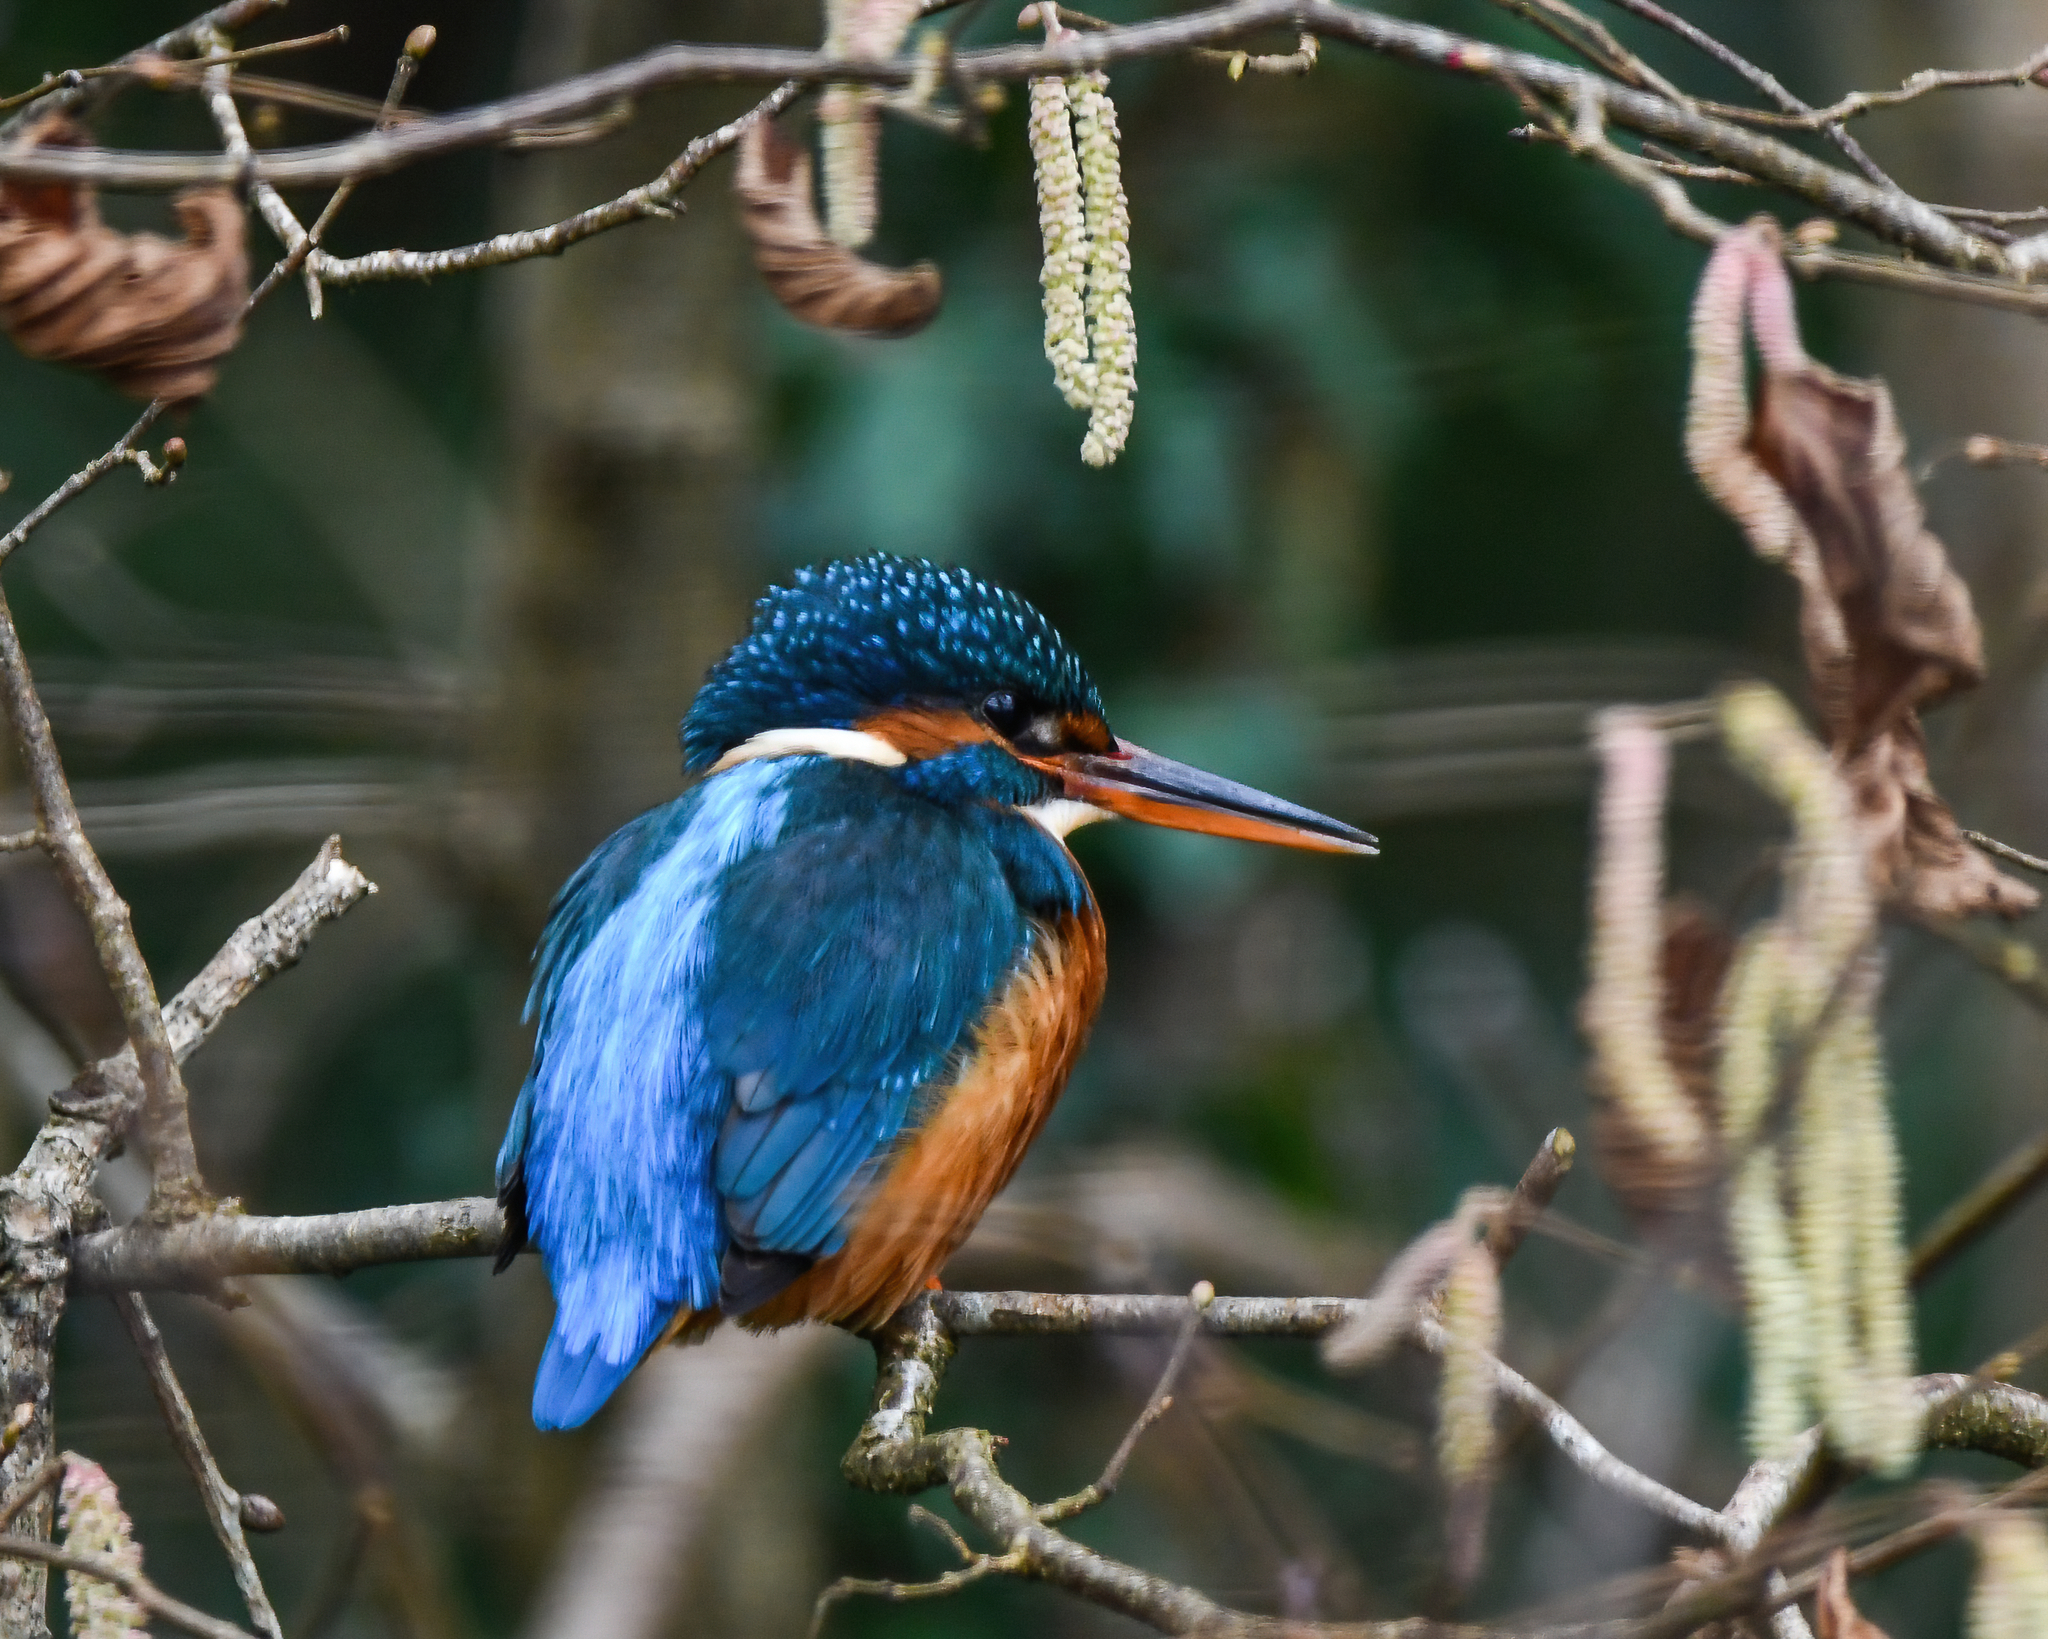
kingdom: Animalia
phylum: Chordata
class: Aves
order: Coraciiformes
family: Alcedinidae
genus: Alcedo
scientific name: Alcedo atthis
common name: Common kingfisher
